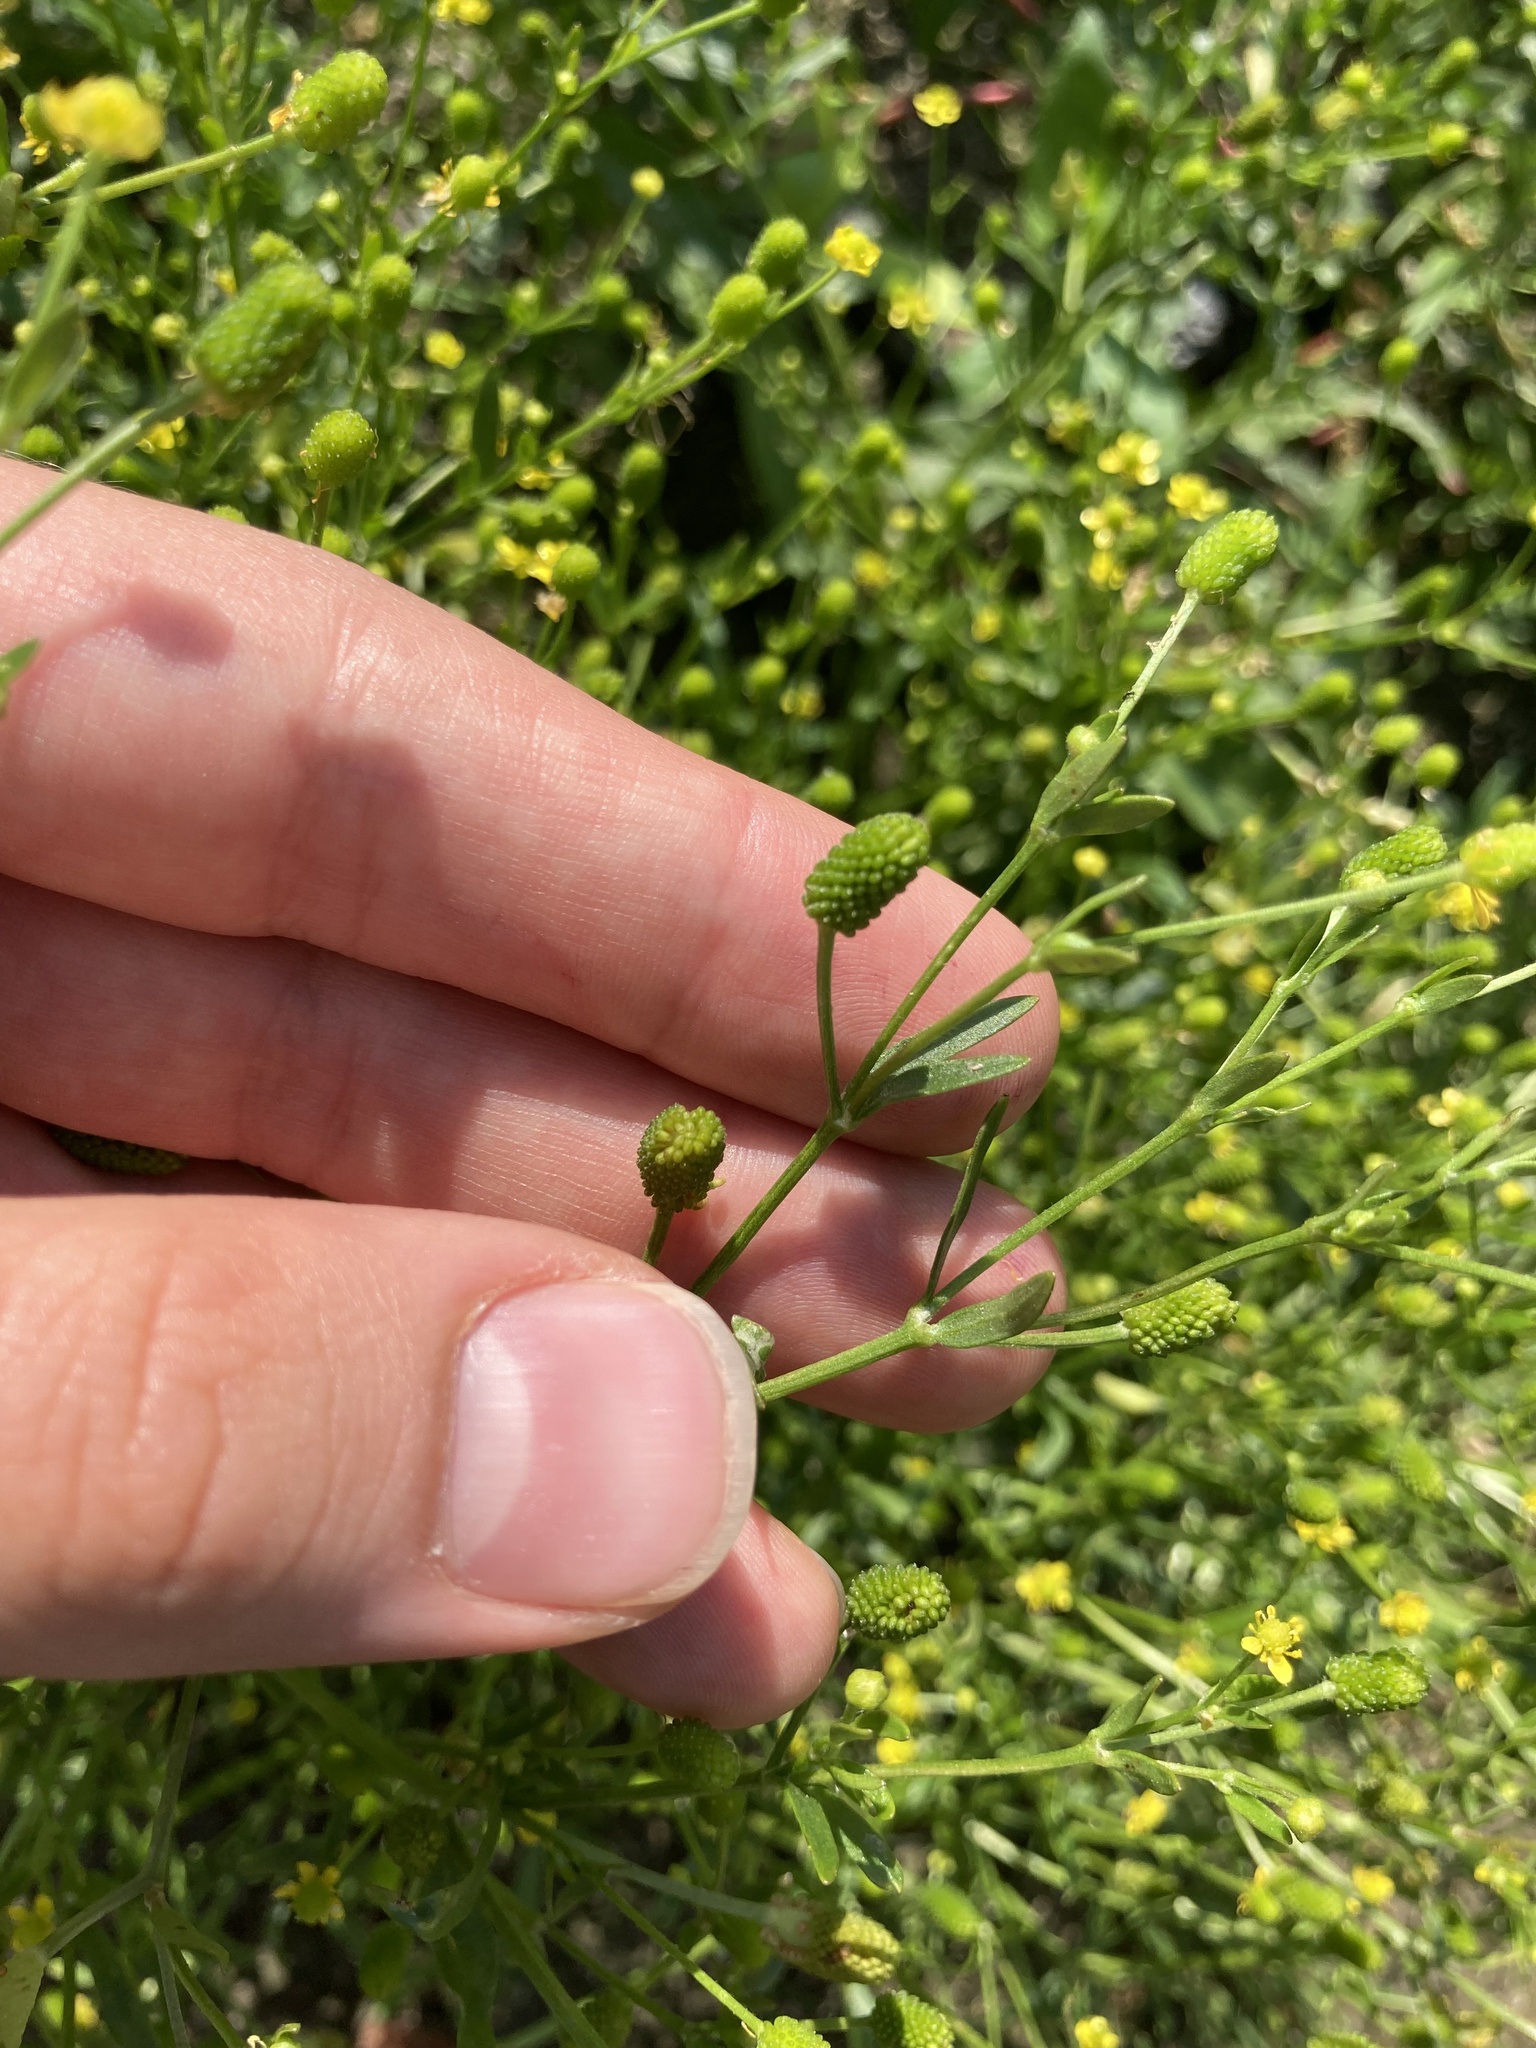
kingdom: Plantae
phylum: Tracheophyta
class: Magnoliopsida
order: Ranunculales
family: Ranunculaceae
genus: Ranunculus
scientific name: Ranunculus sceleratus
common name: Celery-leaved buttercup
